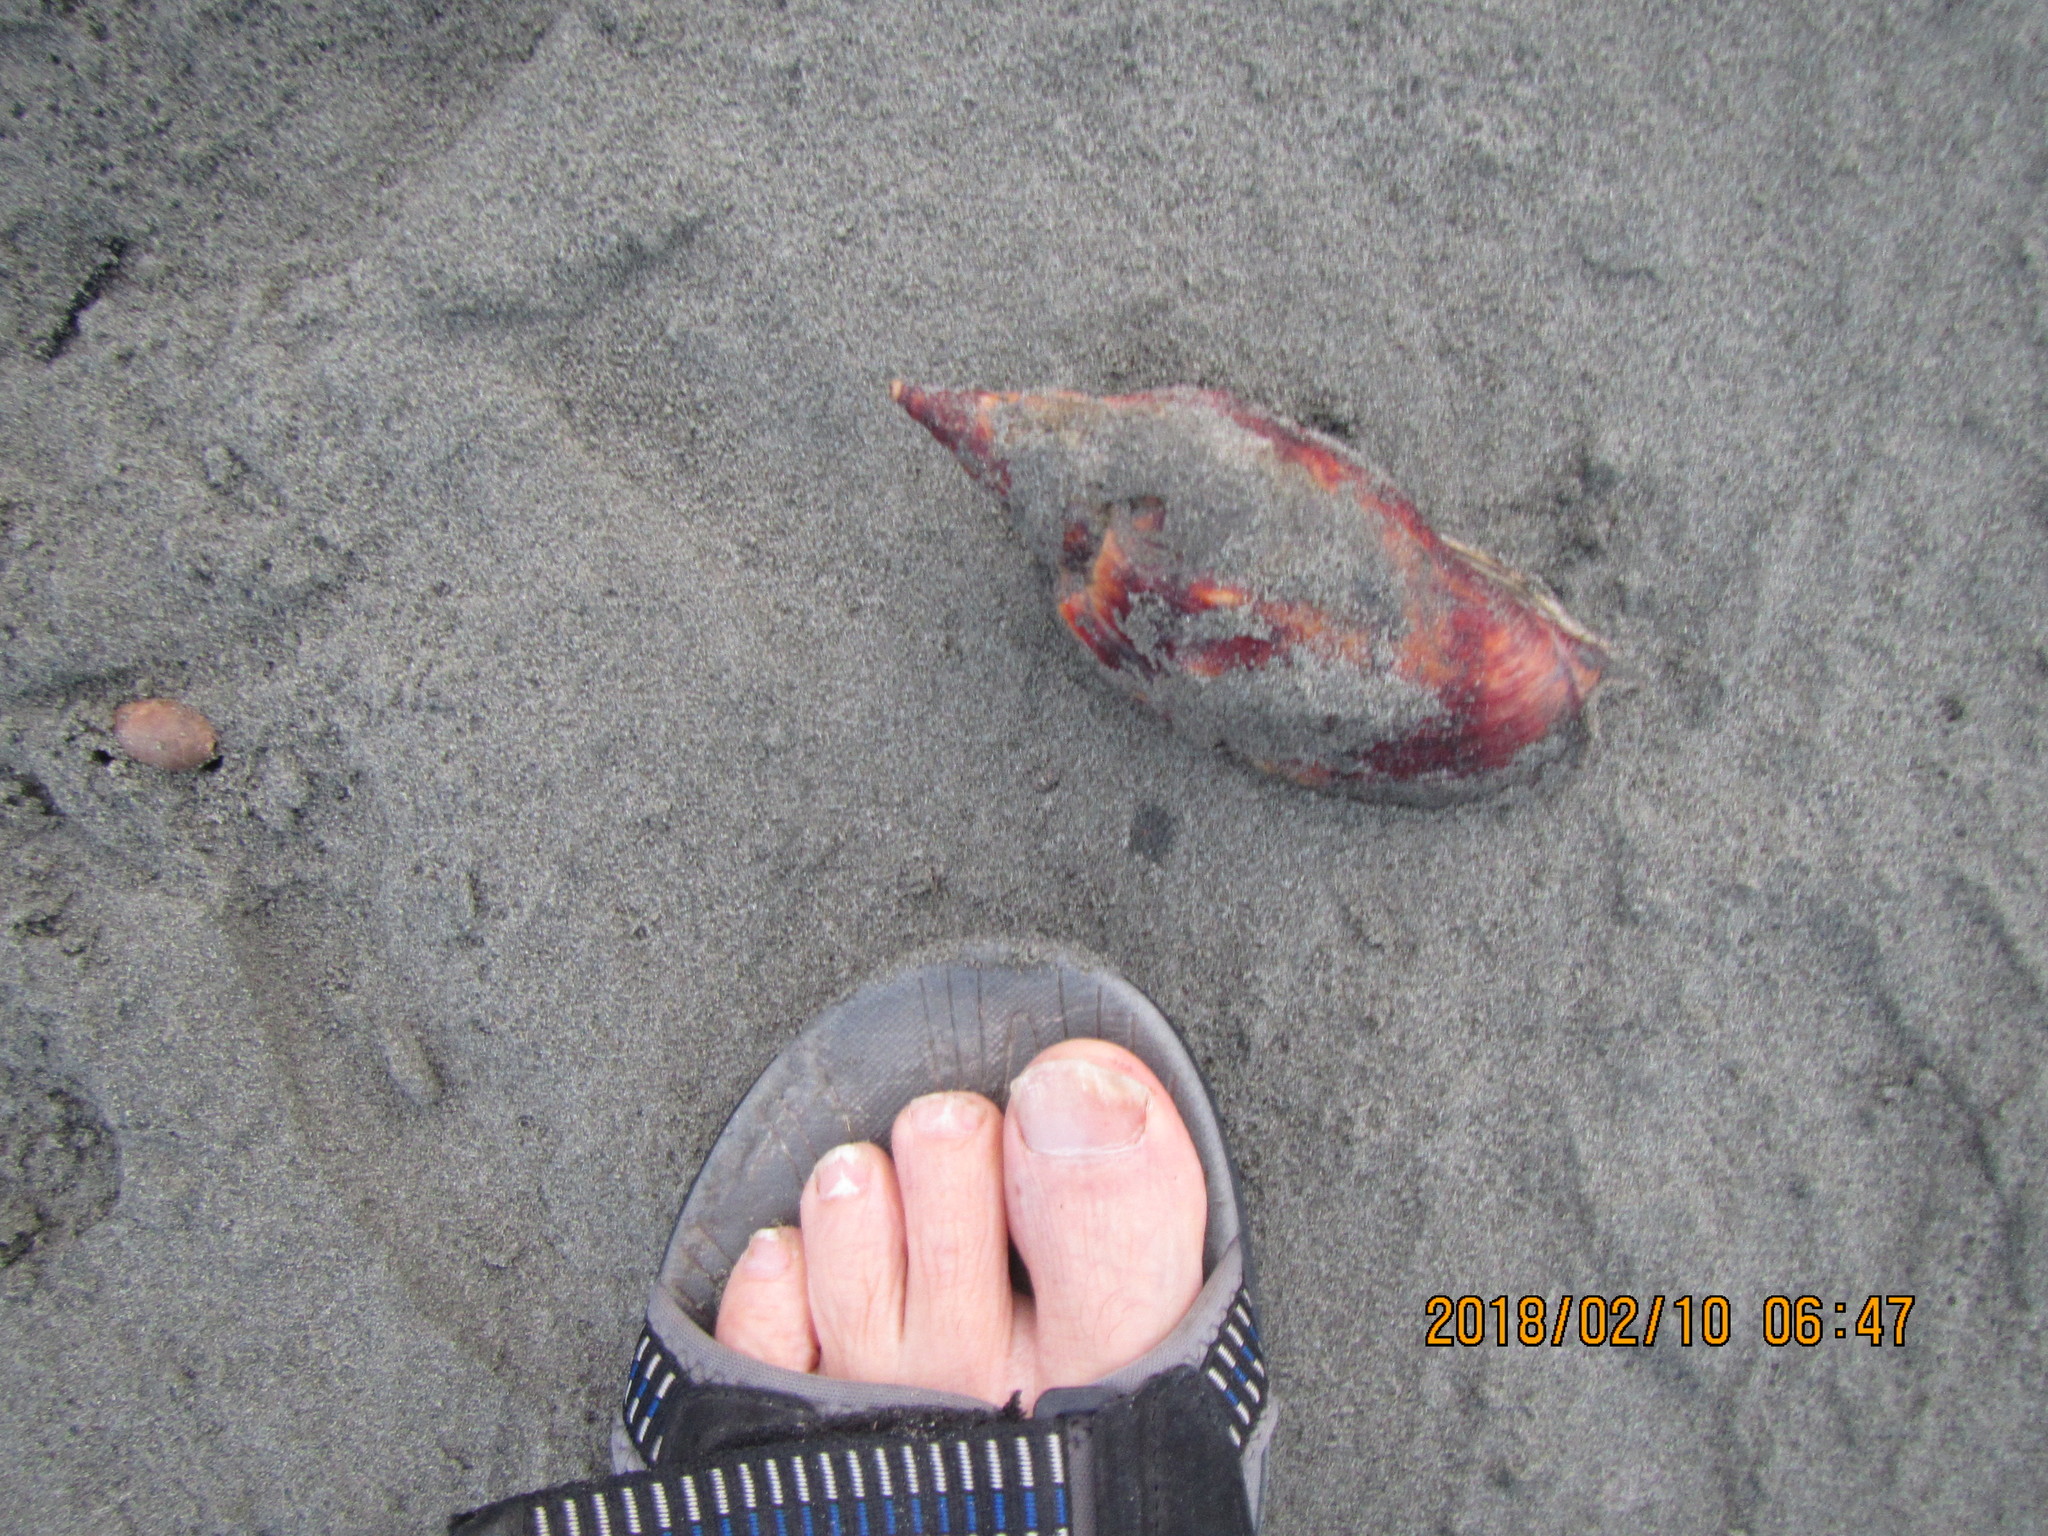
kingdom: Animalia
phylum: Mollusca
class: Gastropoda
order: Neogastropoda
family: Volutidae
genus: Alcithoe
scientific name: Alcithoe arabica
